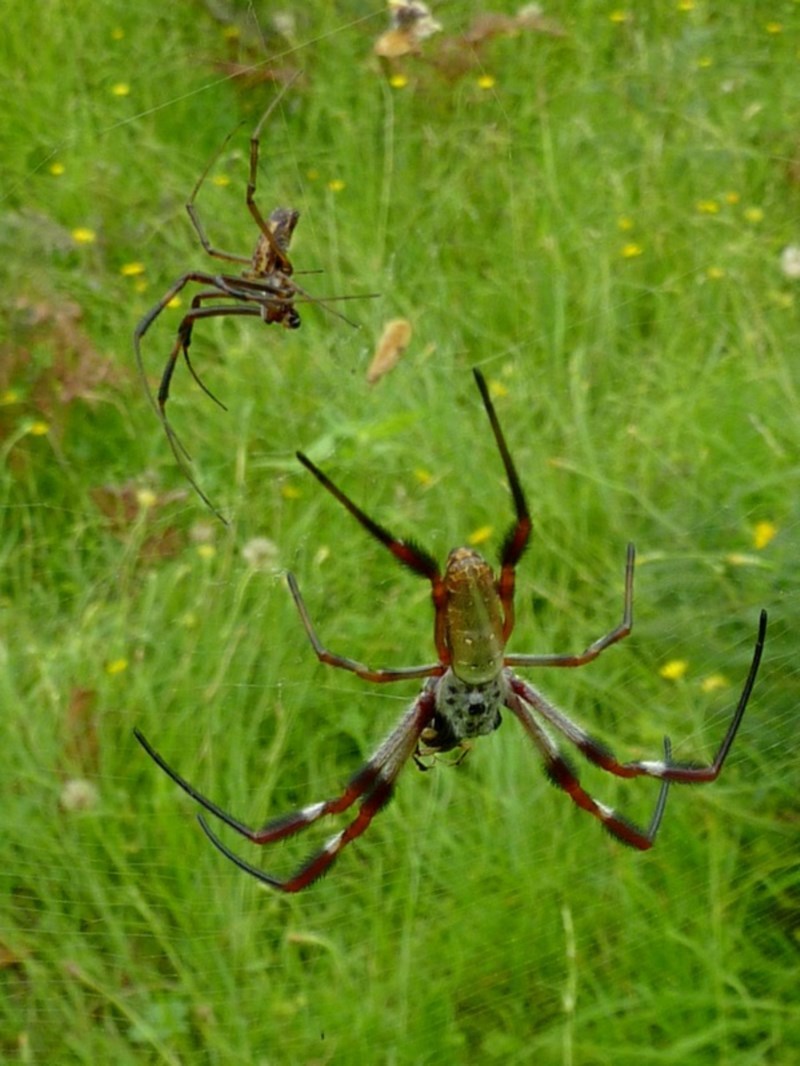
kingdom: Animalia
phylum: Arthropoda
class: Arachnida
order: Araneae
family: Araneidae
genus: Trichonephila
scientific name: Trichonephila edulis
